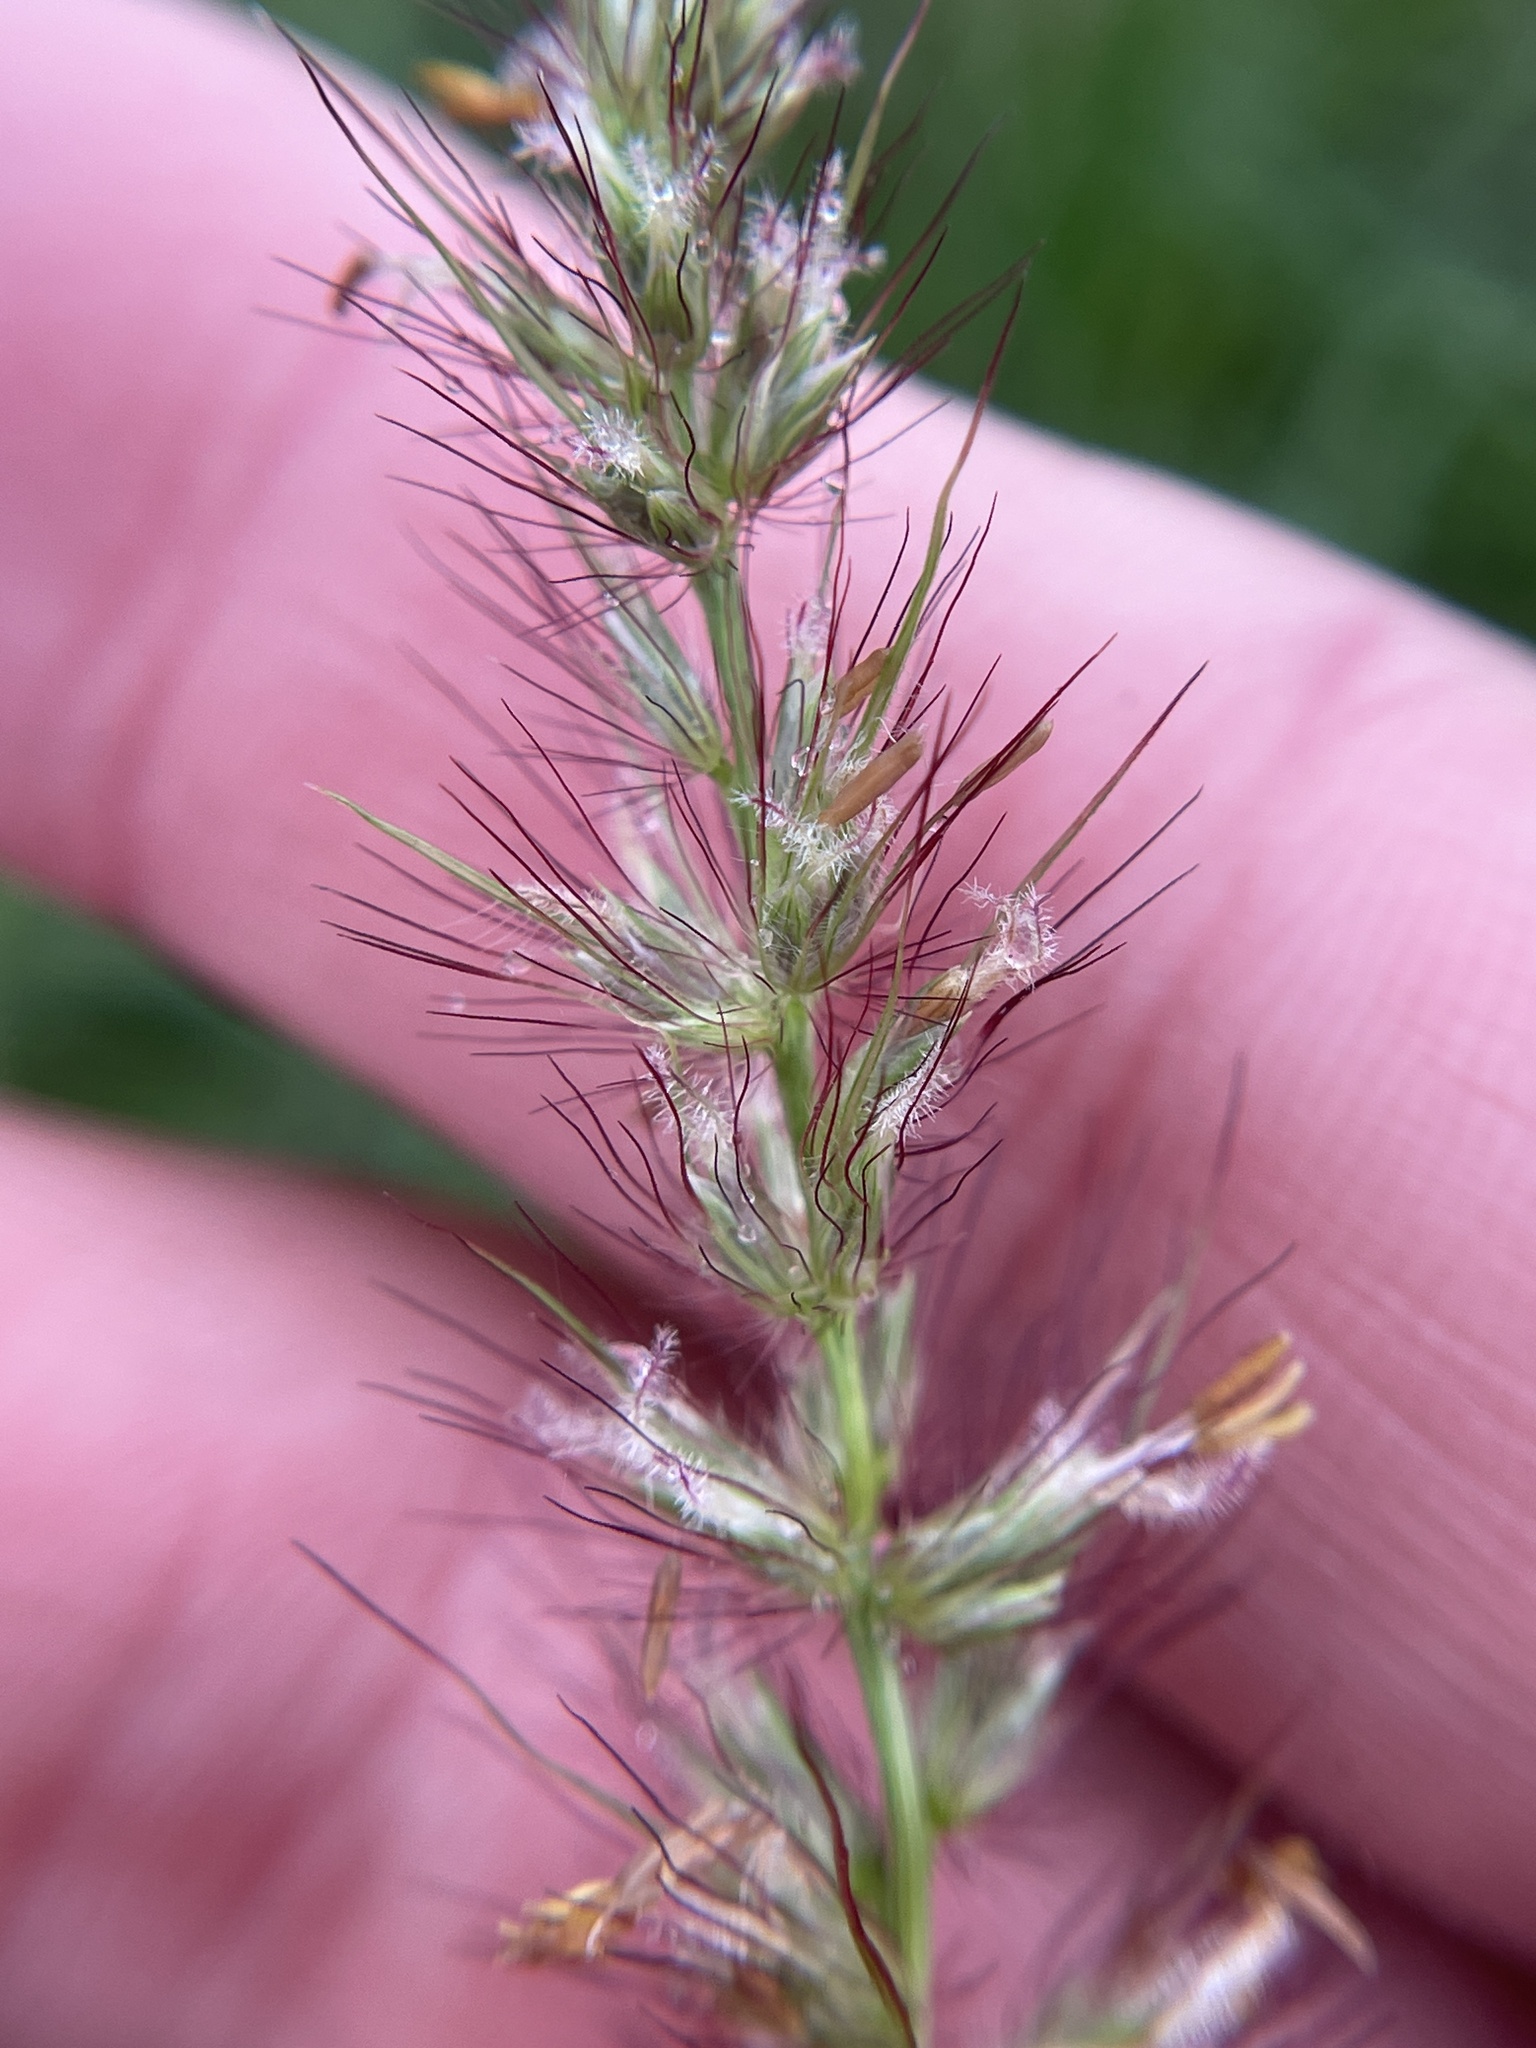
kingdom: Plantae
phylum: Tracheophyta
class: Liliopsida
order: Poales
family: Poaceae
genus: Cenchrus
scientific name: Cenchrus ciliaris
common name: Buffelgrass
